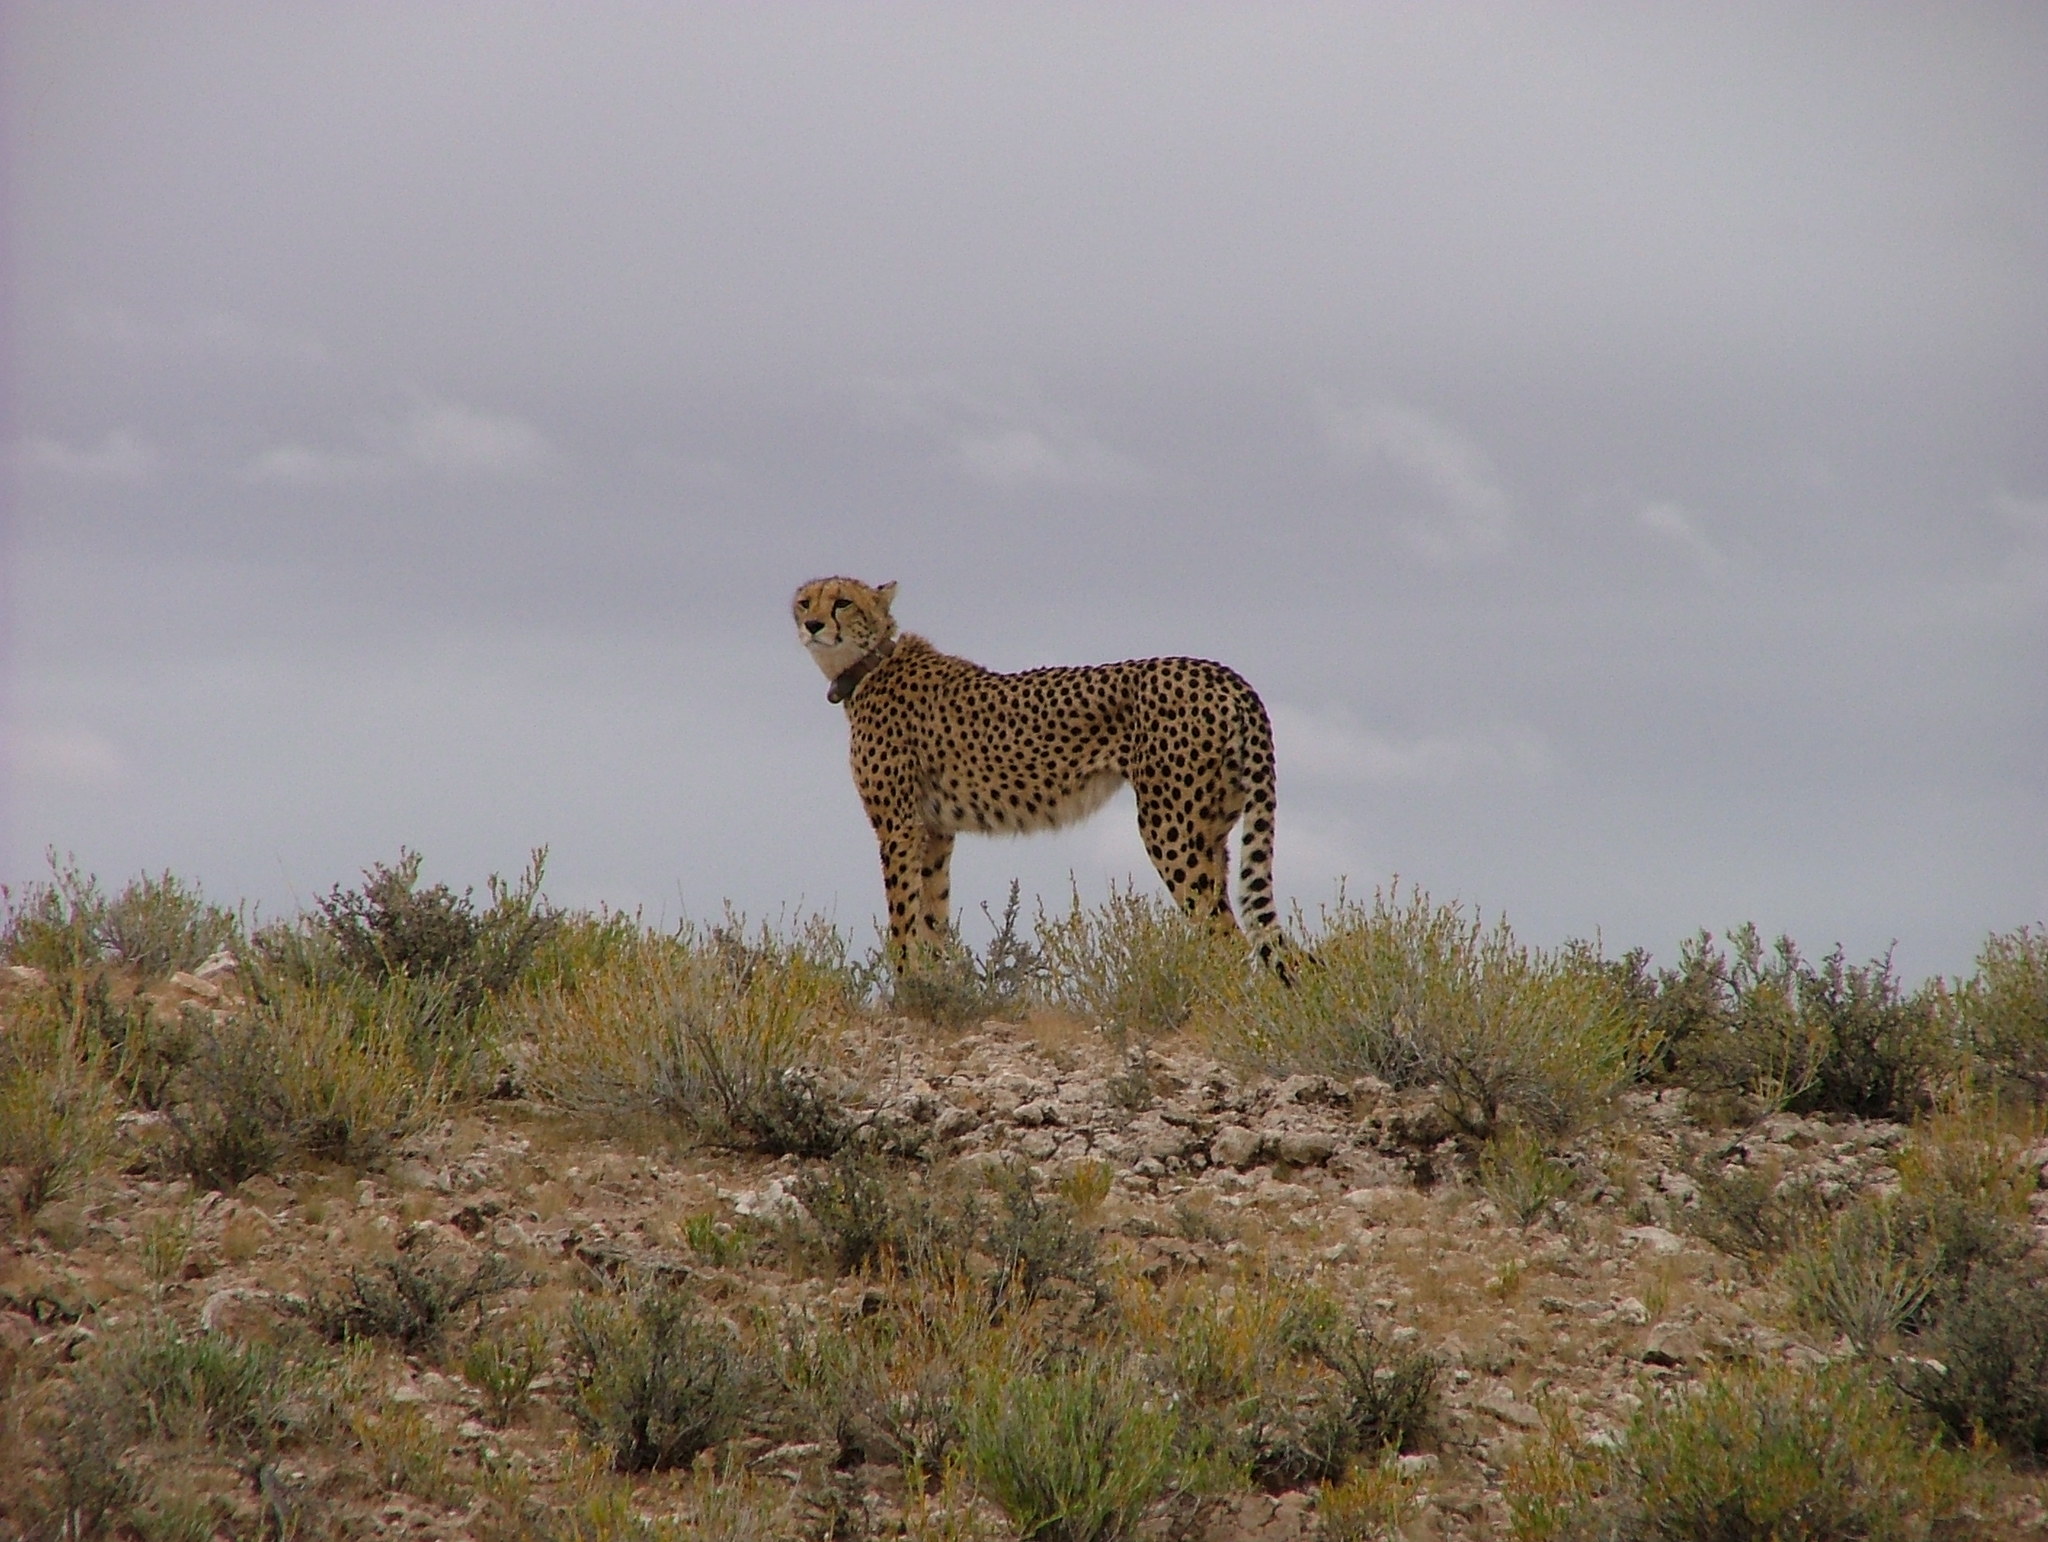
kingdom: Animalia
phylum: Chordata
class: Mammalia
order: Carnivora
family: Felidae
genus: Acinonyx
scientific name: Acinonyx jubatus
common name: Cheetah
